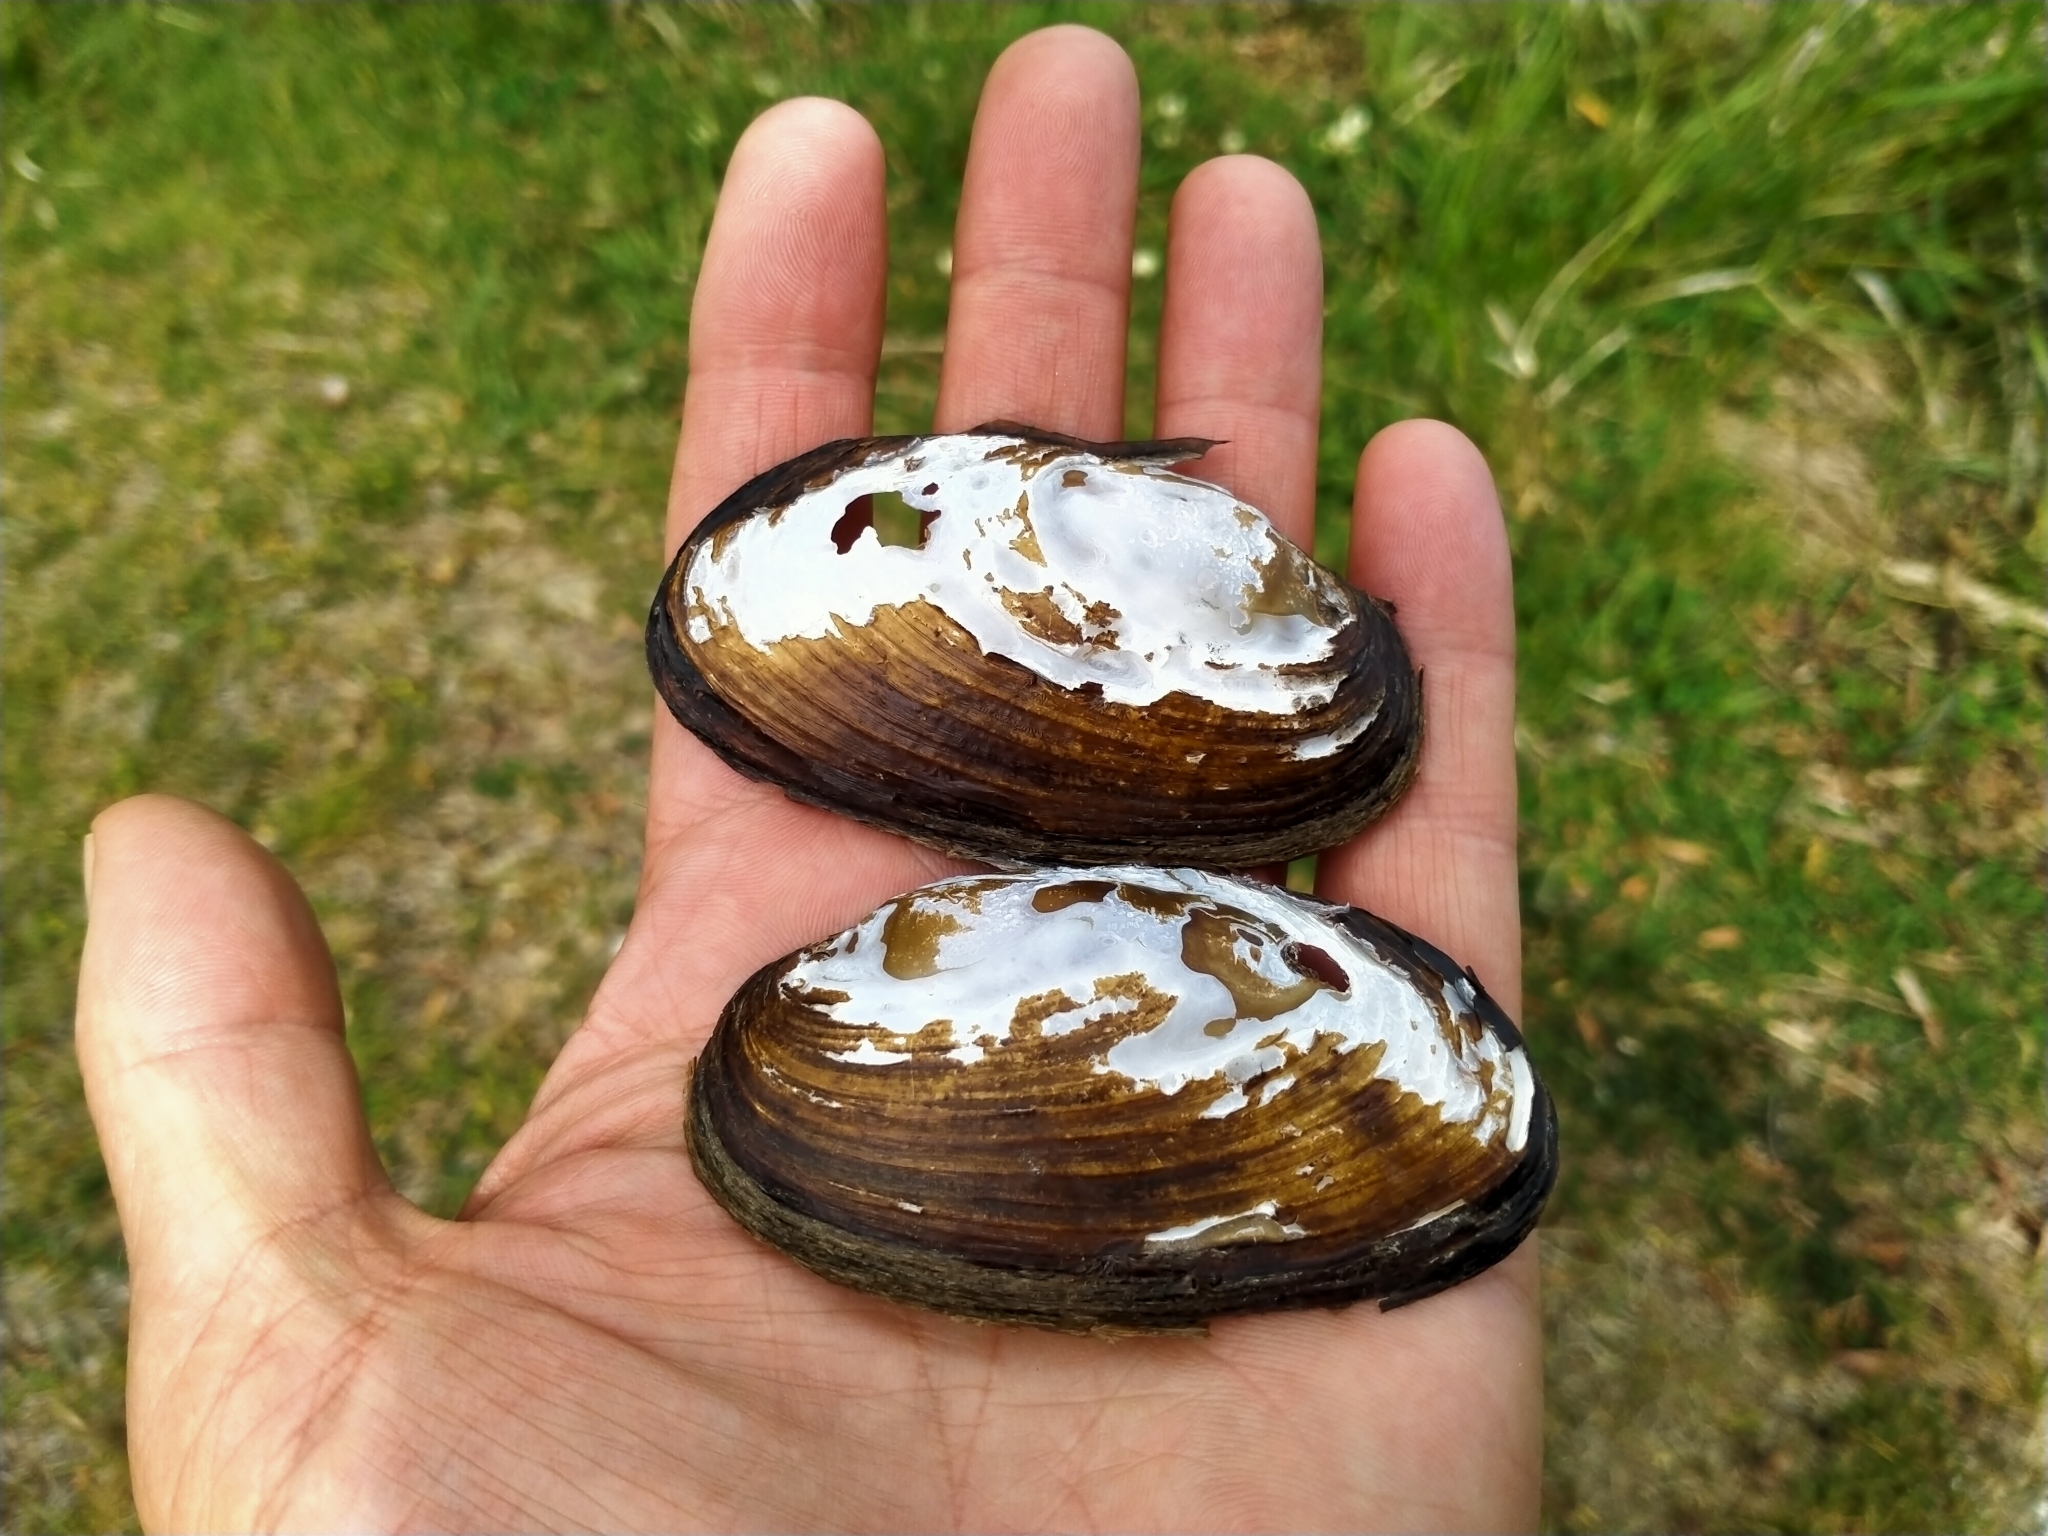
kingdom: Animalia
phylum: Mollusca
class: Bivalvia
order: Unionida
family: Hyriidae
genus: Echyridella
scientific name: Echyridella menziesii
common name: New zealand freshwater mussel
